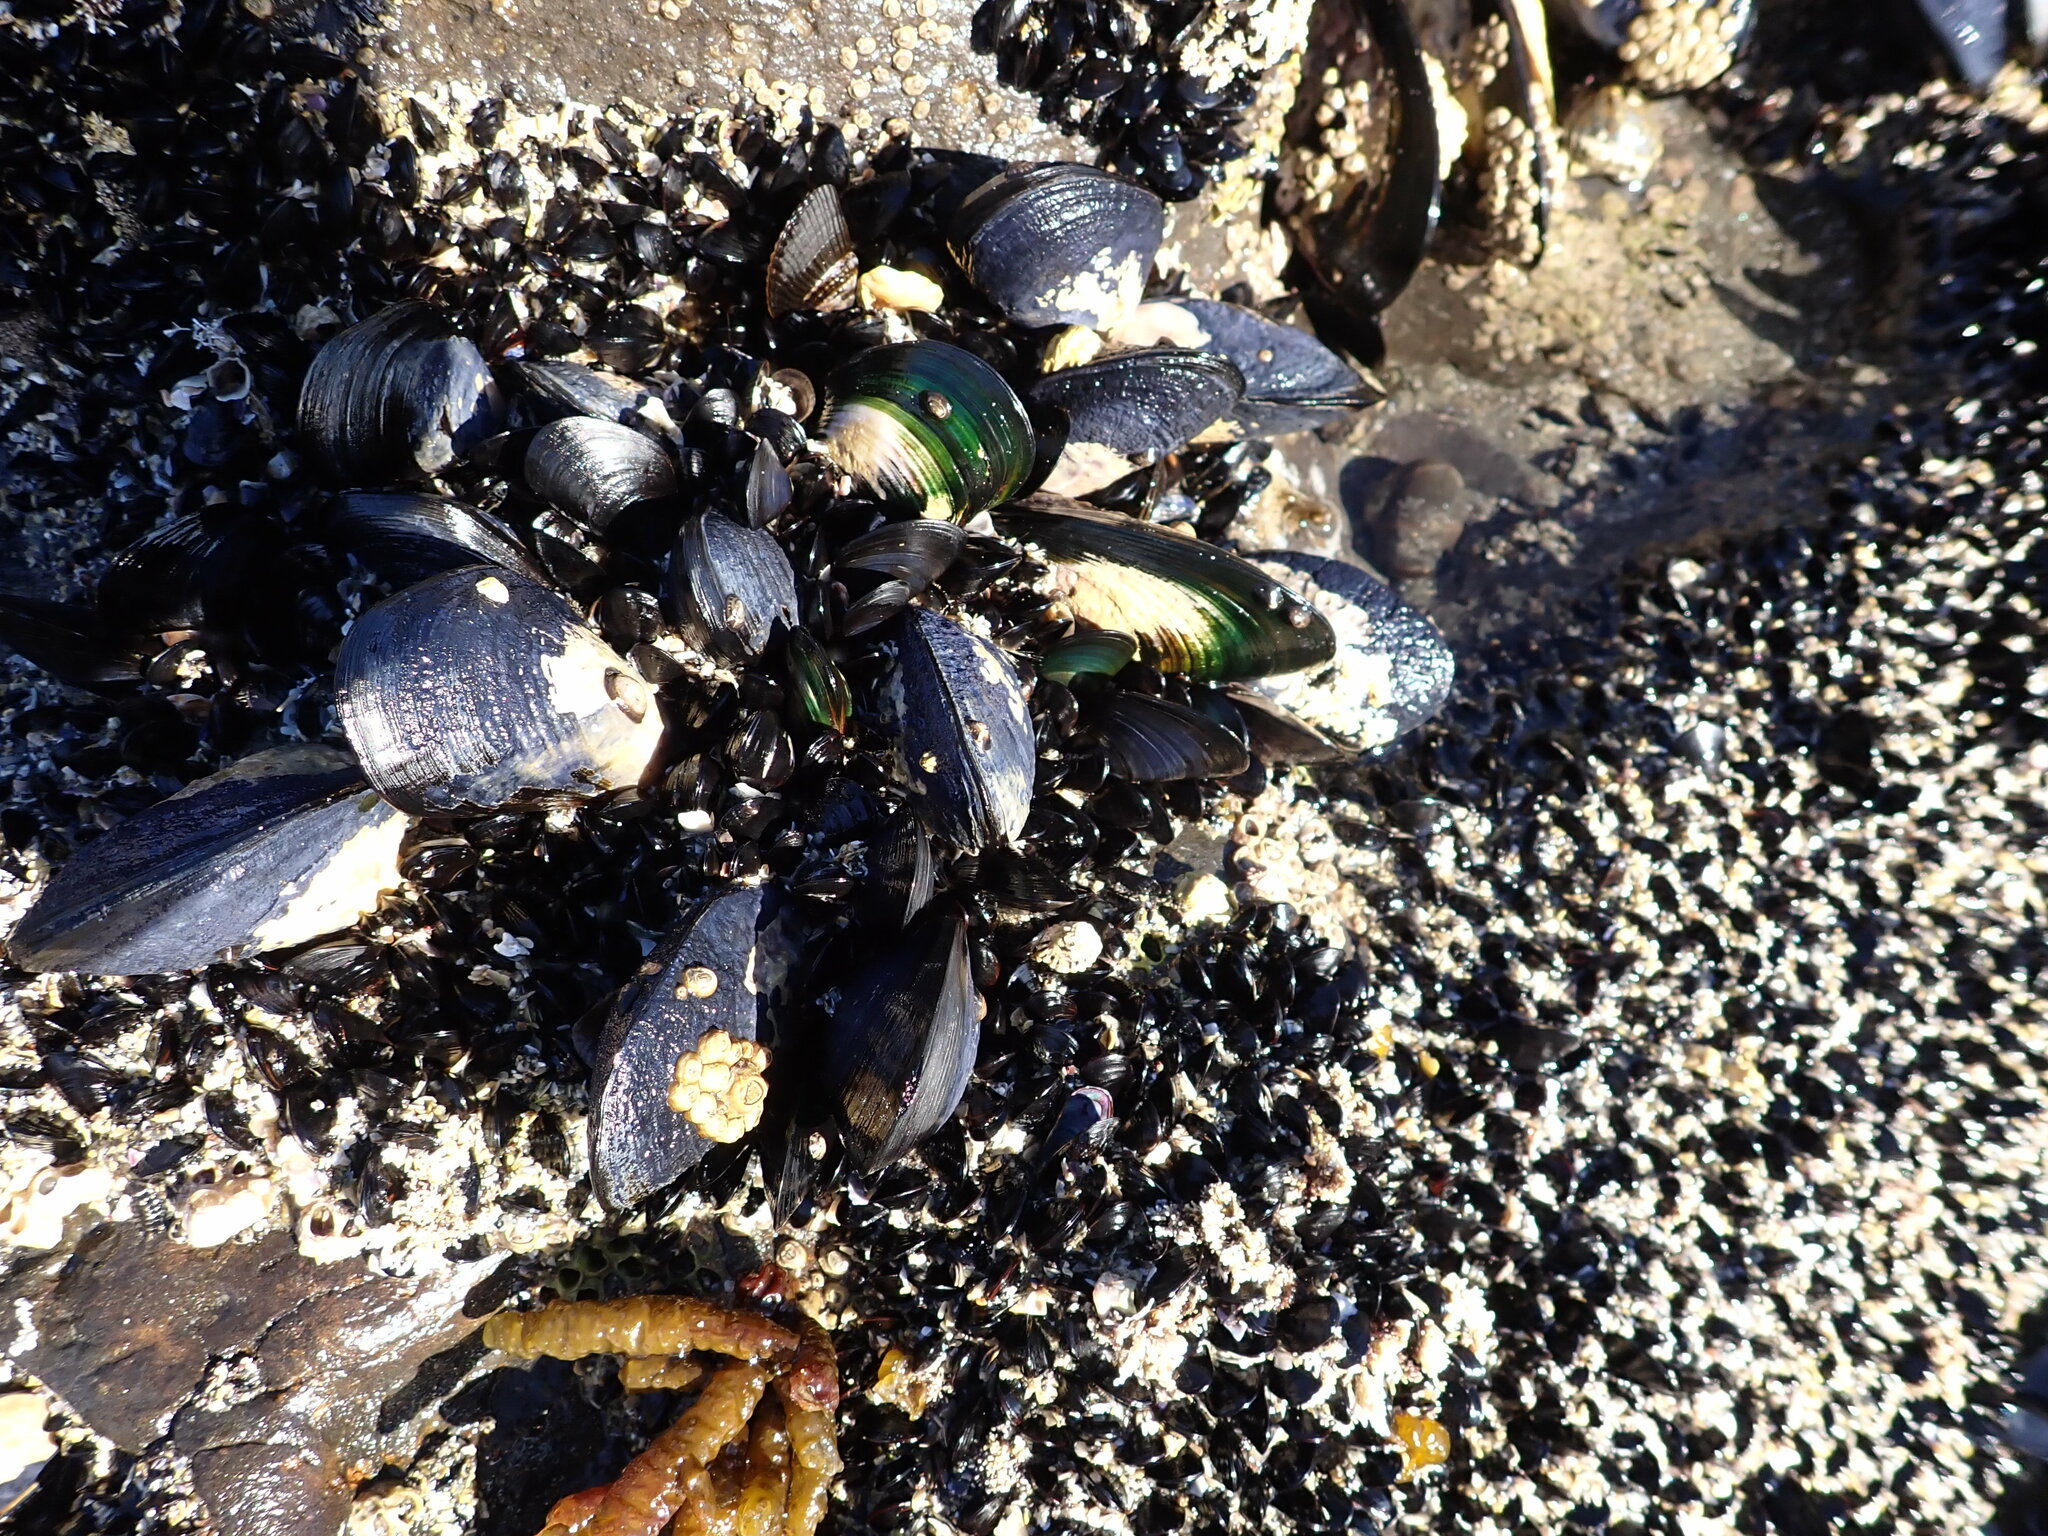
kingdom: Animalia
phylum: Mollusca
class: Bivalvia
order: Mytilida
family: Mytilidae
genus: Mytilus
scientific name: Mytilus planulatus
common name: Australian mussel
